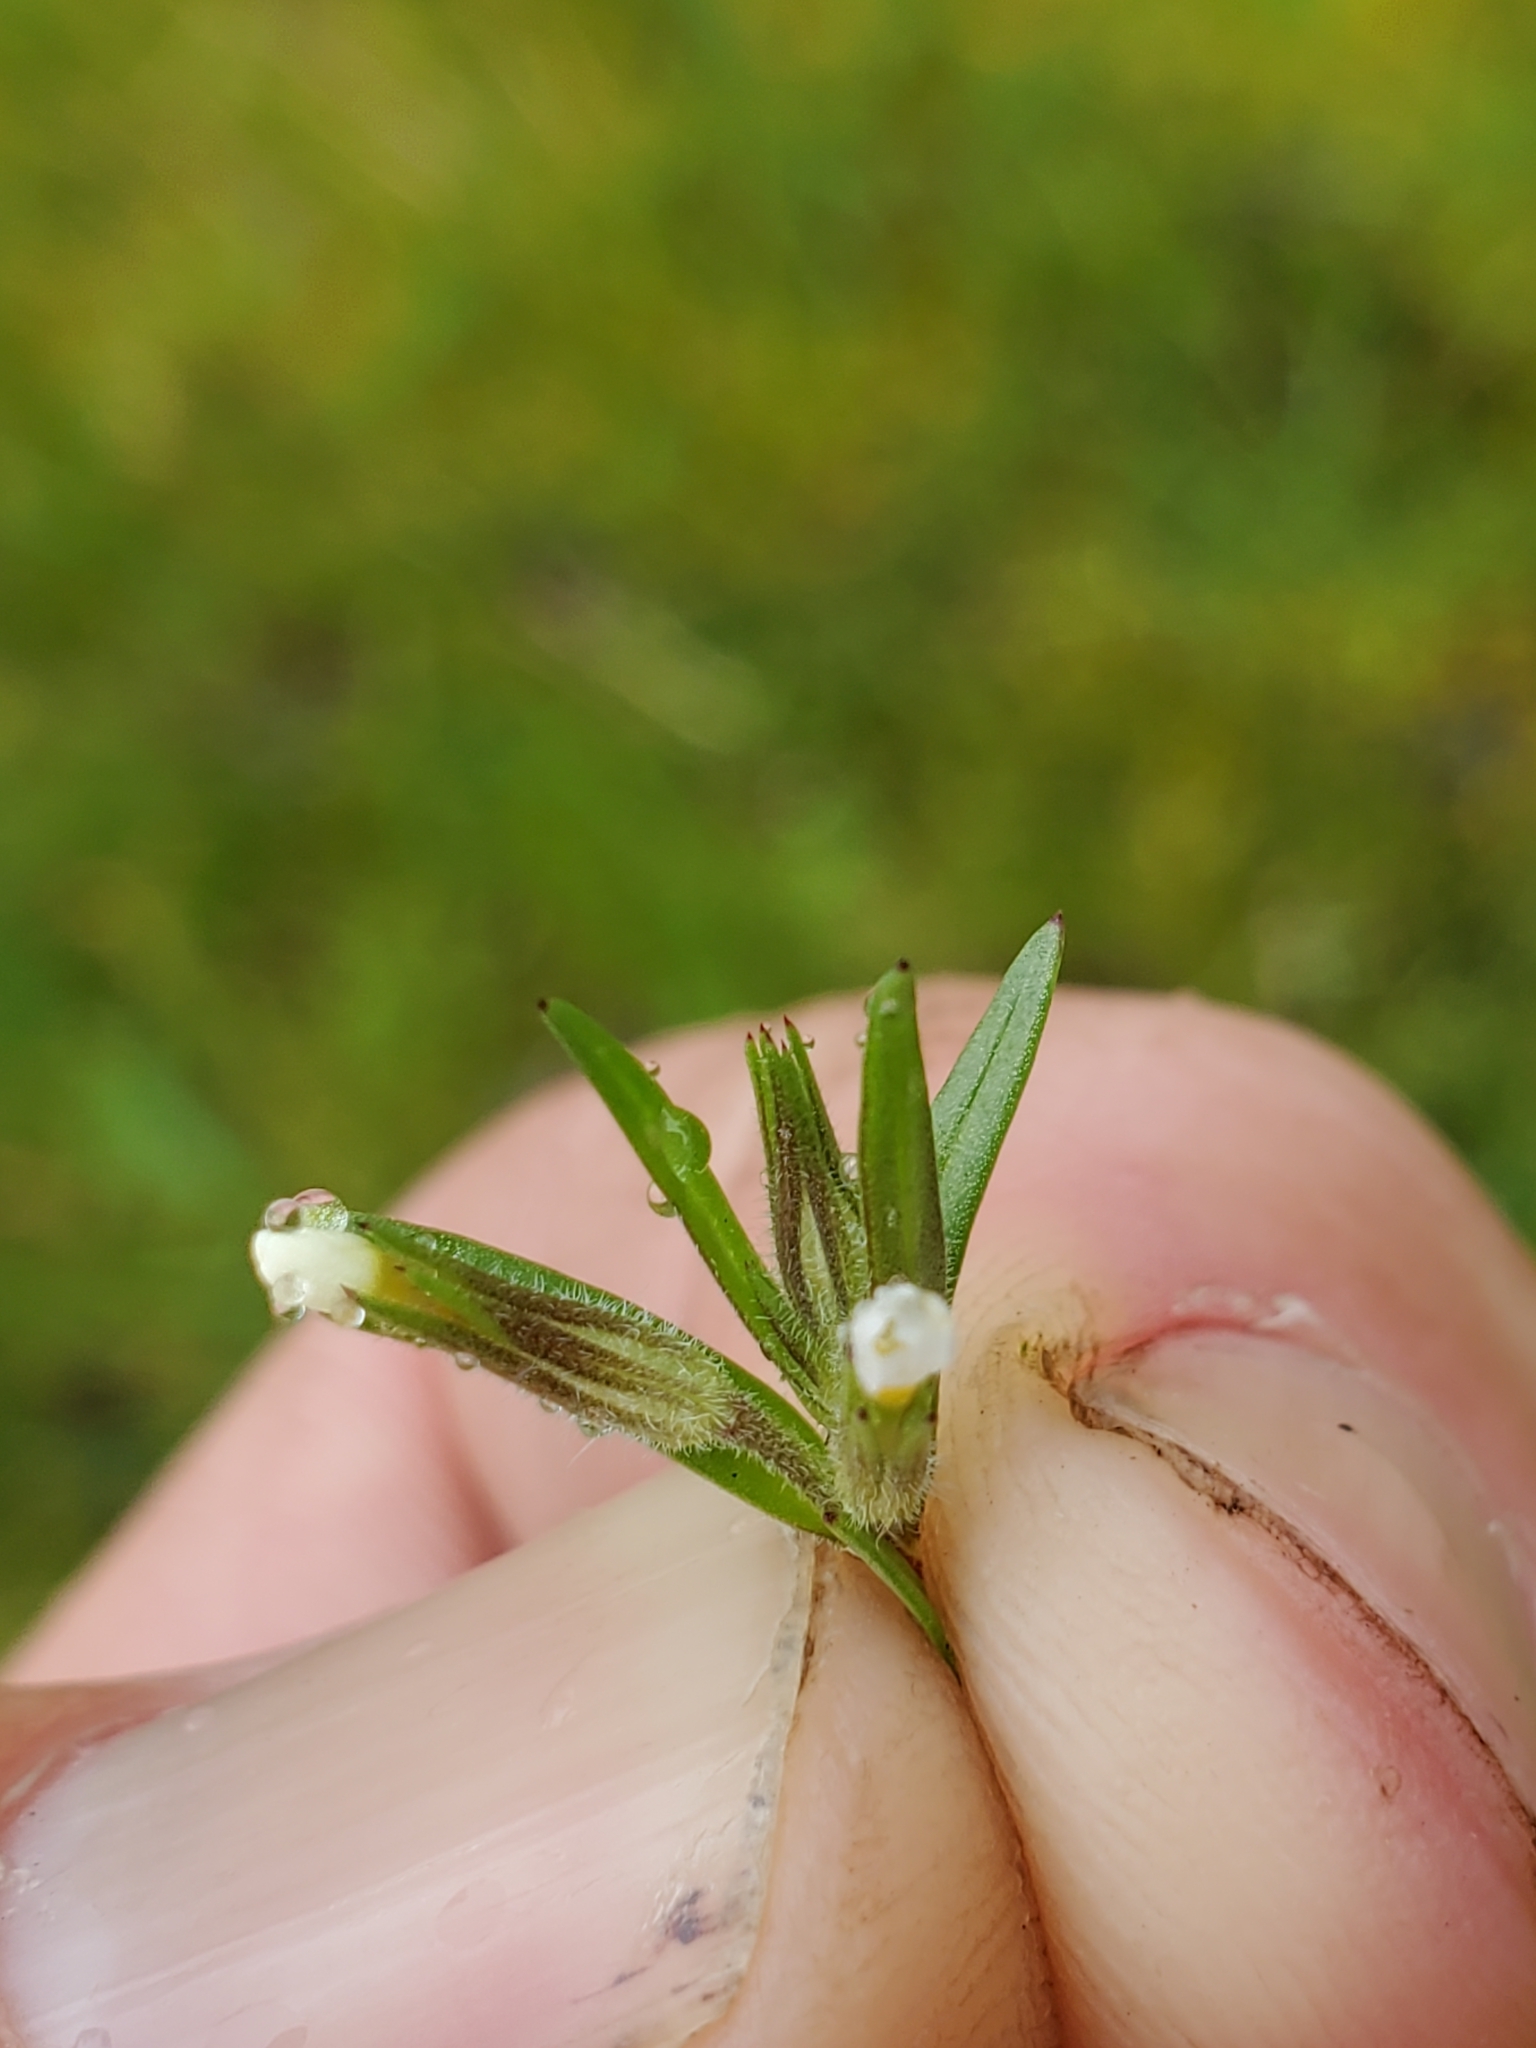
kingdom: Plantae
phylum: Tracheophyta
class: Magnoliopsida
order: Ericales
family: Polemoniaceae
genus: Phlox
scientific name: Phlox gracilis
